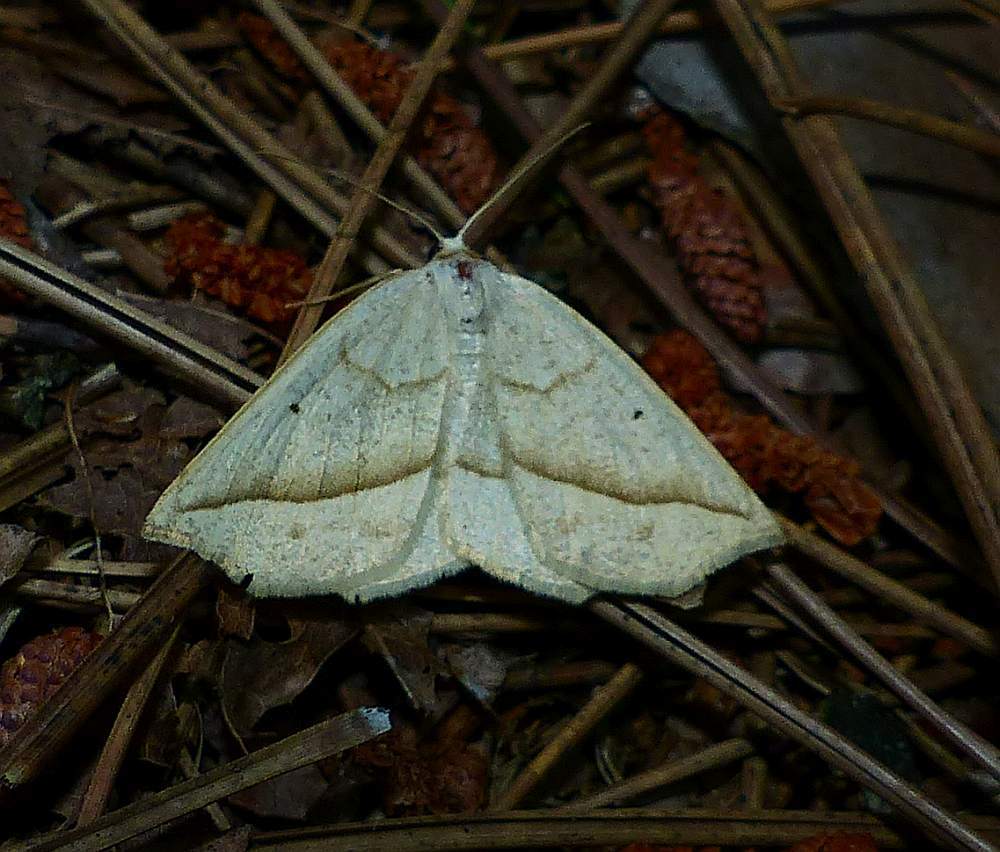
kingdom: Animalia
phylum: Arthropoda
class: Insecta
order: Lepidoptera
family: Geometridae
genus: Eusarca
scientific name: Eusarca confusaria
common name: Confused eusarca
